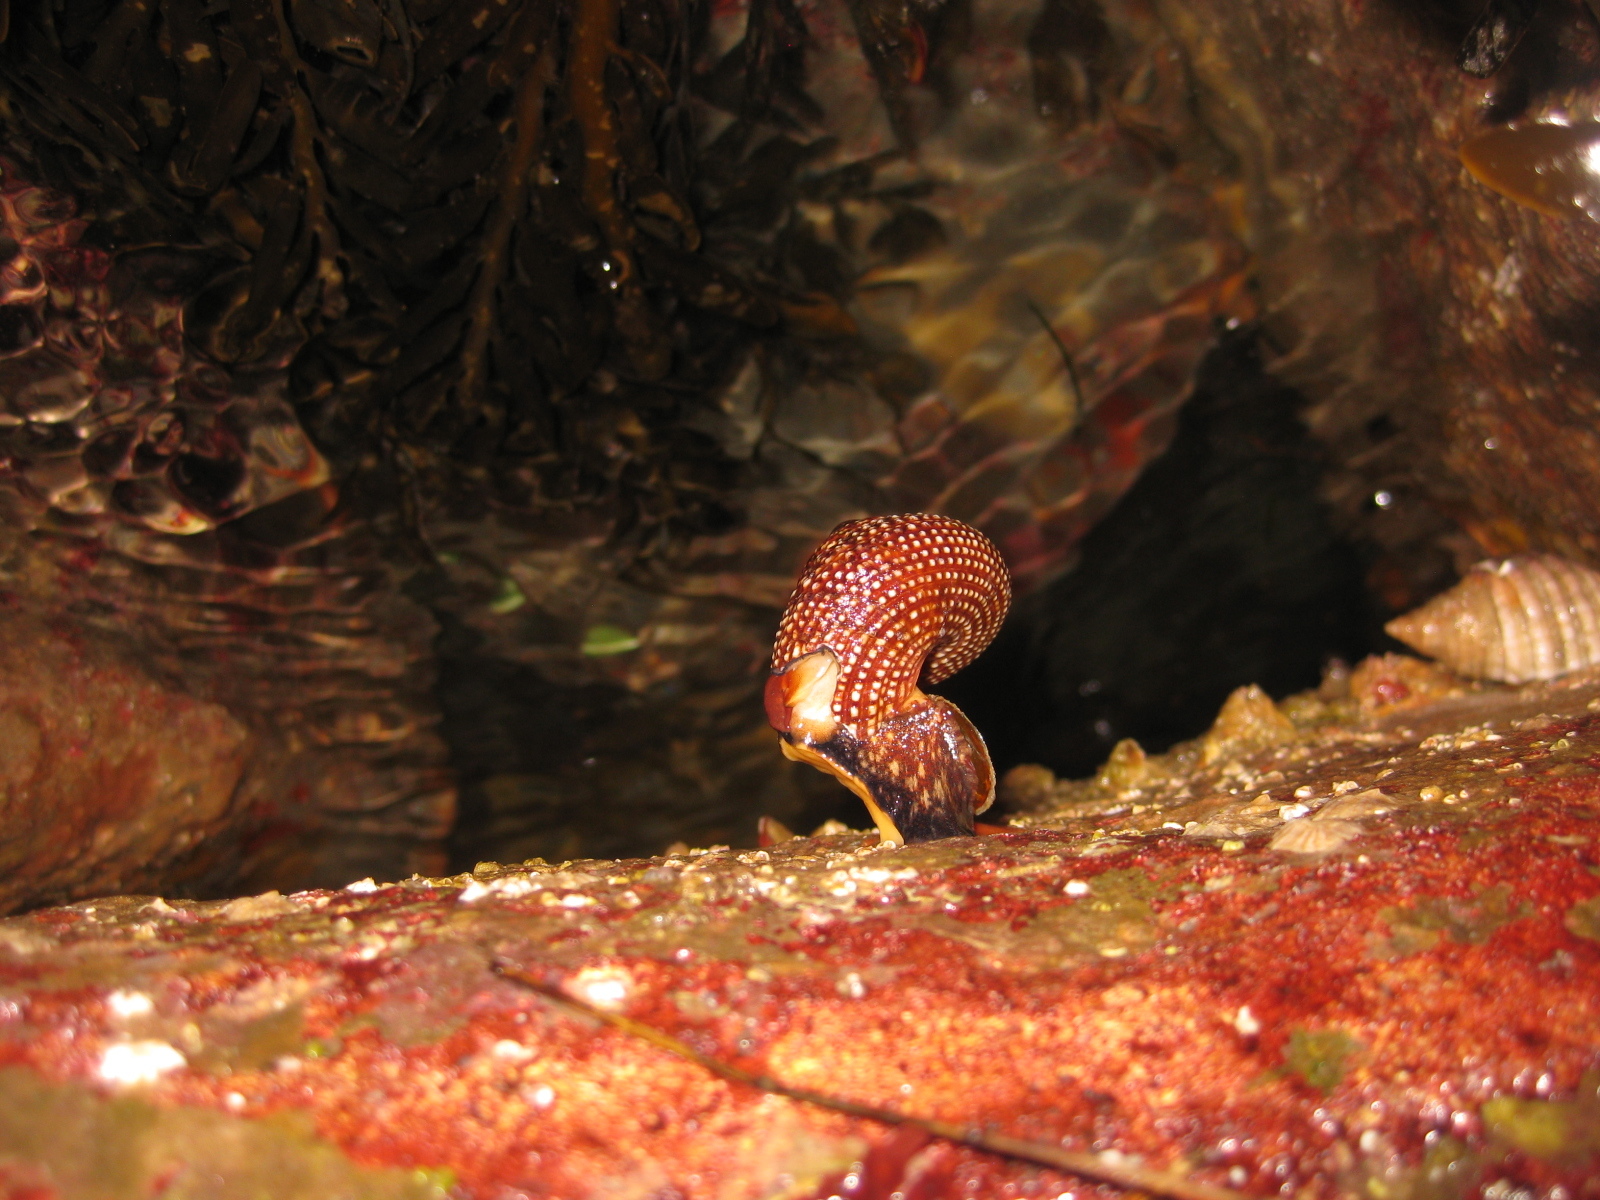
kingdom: Animalia
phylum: Mollusca
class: Gastropoda
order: Trochida
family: Calliostomatidae
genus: Maurea
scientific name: Maurea punctulata
